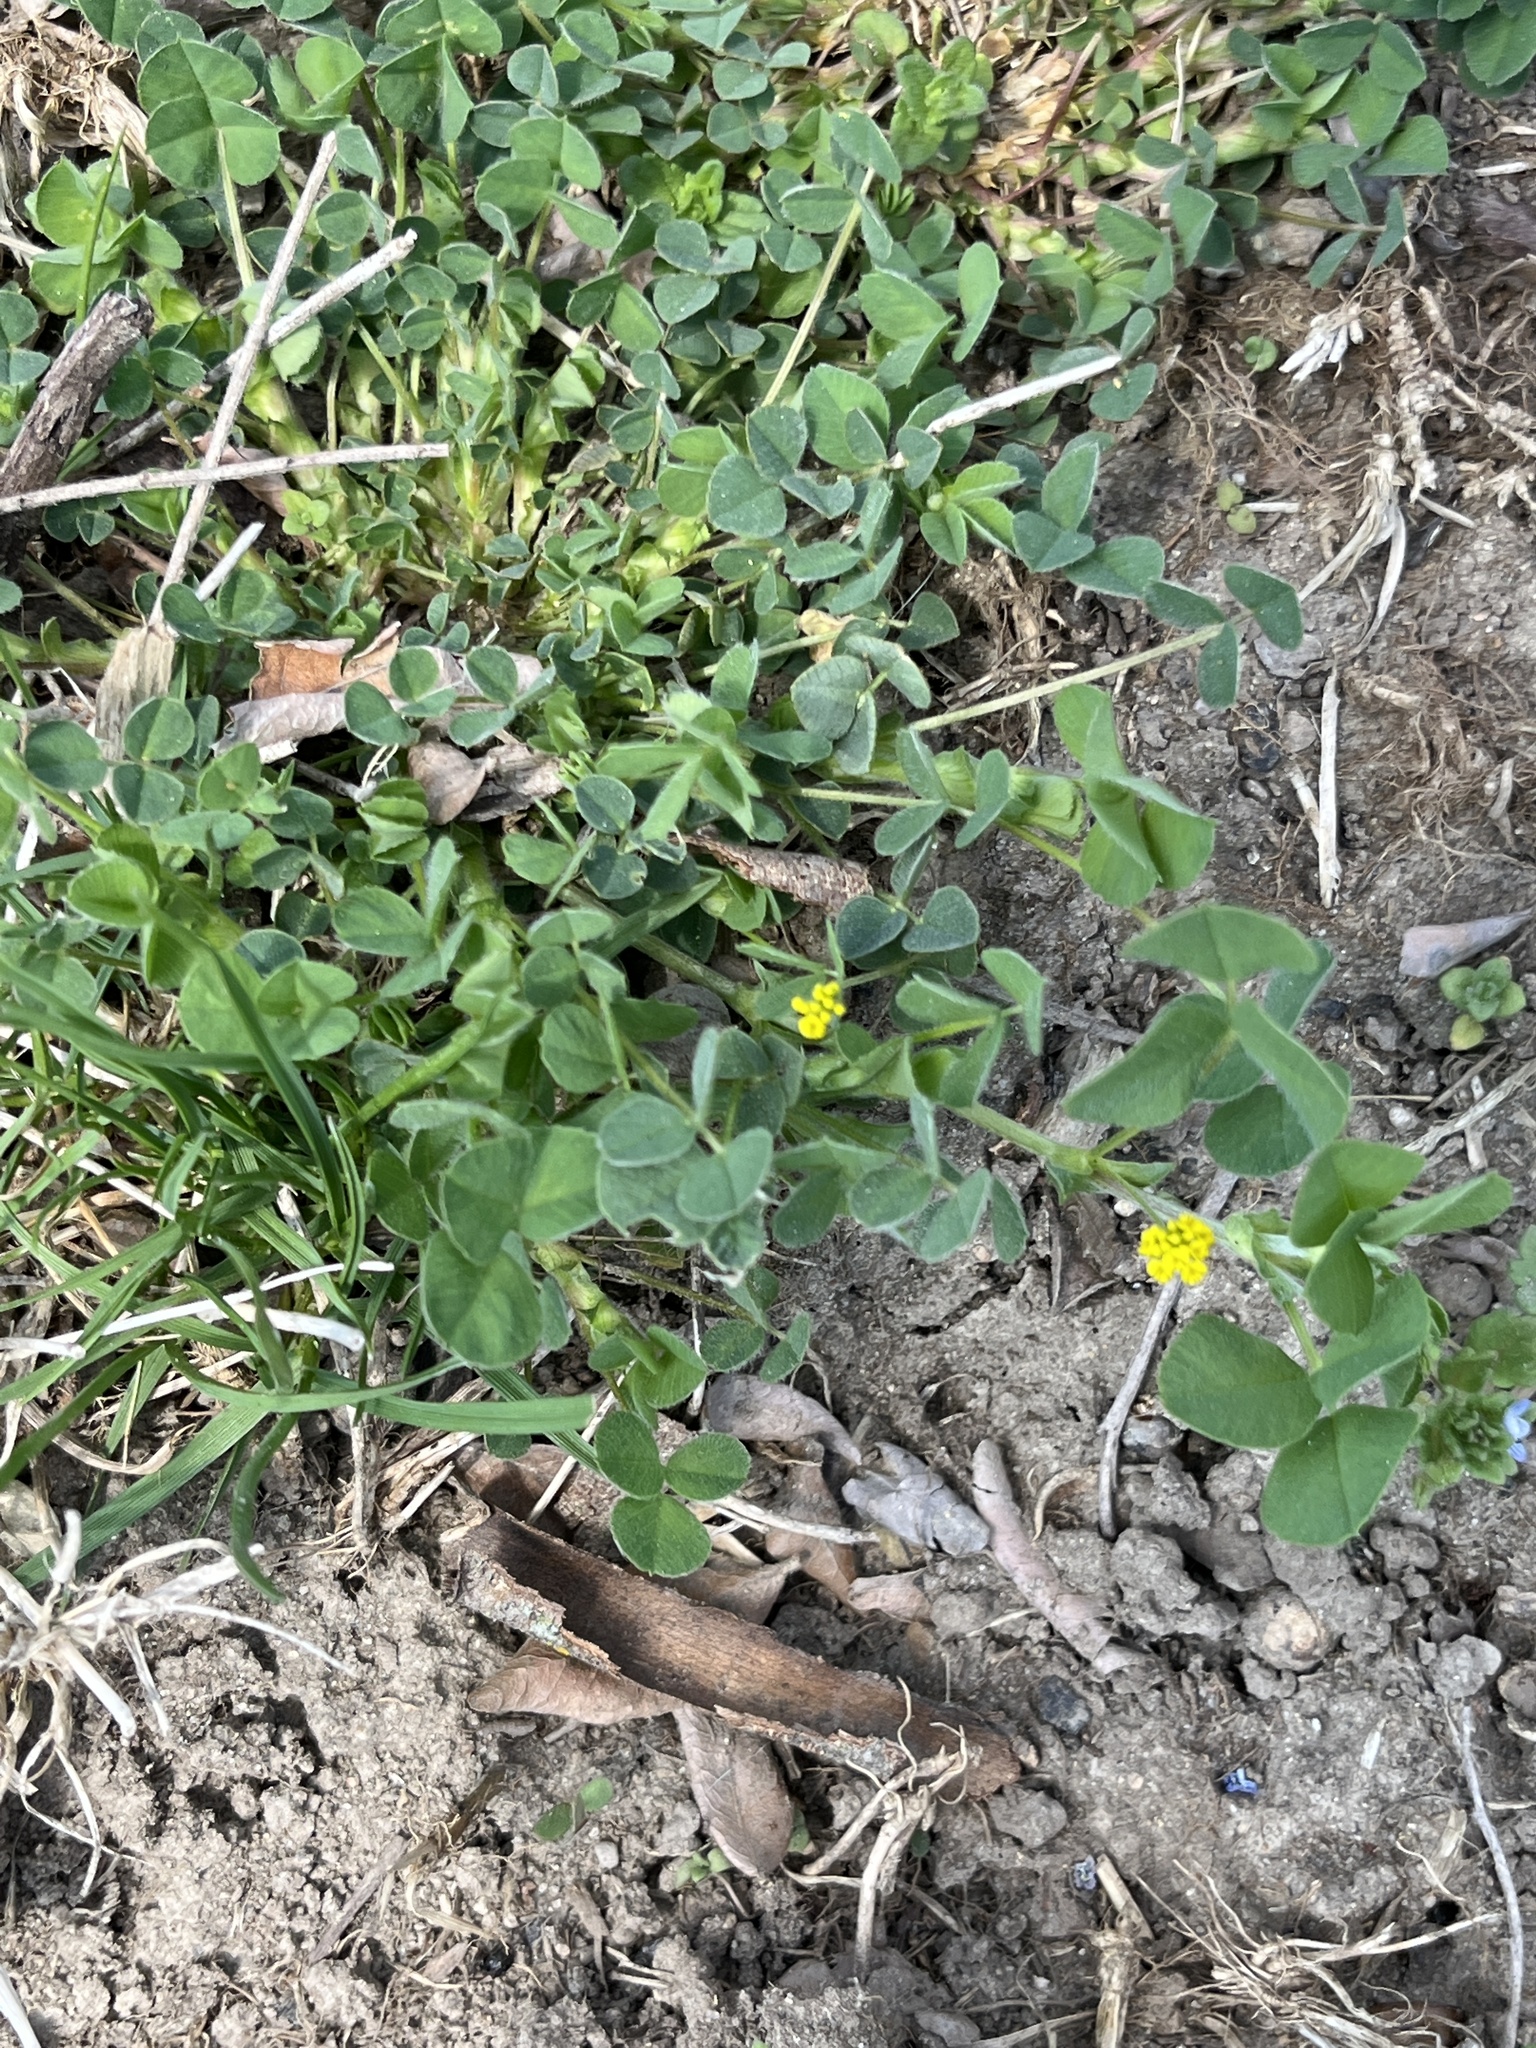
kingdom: Plantae
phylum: Tracheophyta
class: Magnoliopsida
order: Fabales
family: Fabaceae
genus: Medicago
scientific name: Medicago lupulina
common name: Black medick
